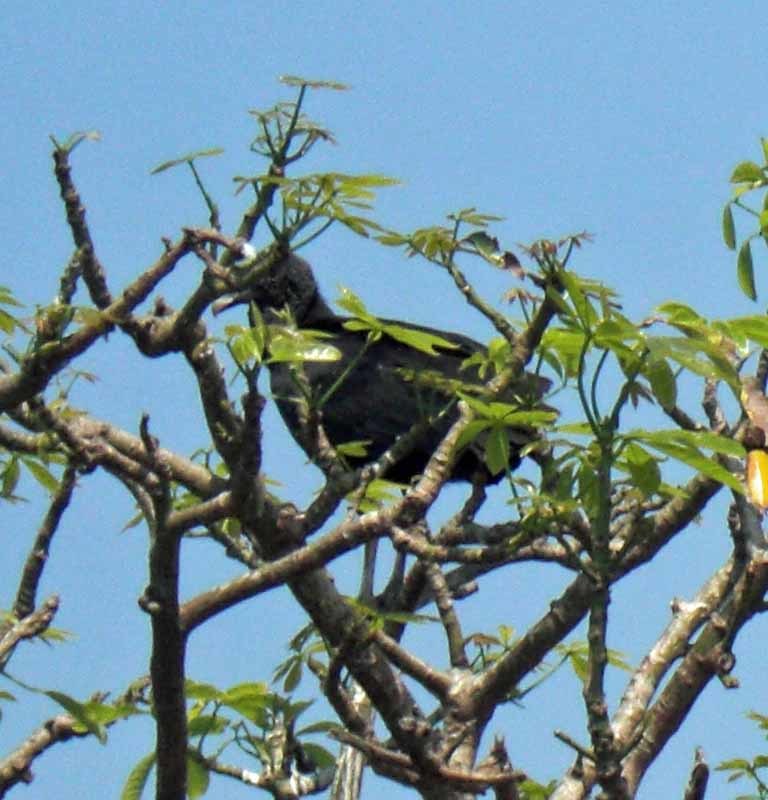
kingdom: Animalia
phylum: Chordata
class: Aves
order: Accipitriformes
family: Cathartidae
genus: Coragyps
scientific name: Coragyps atratus
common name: Black vulture
